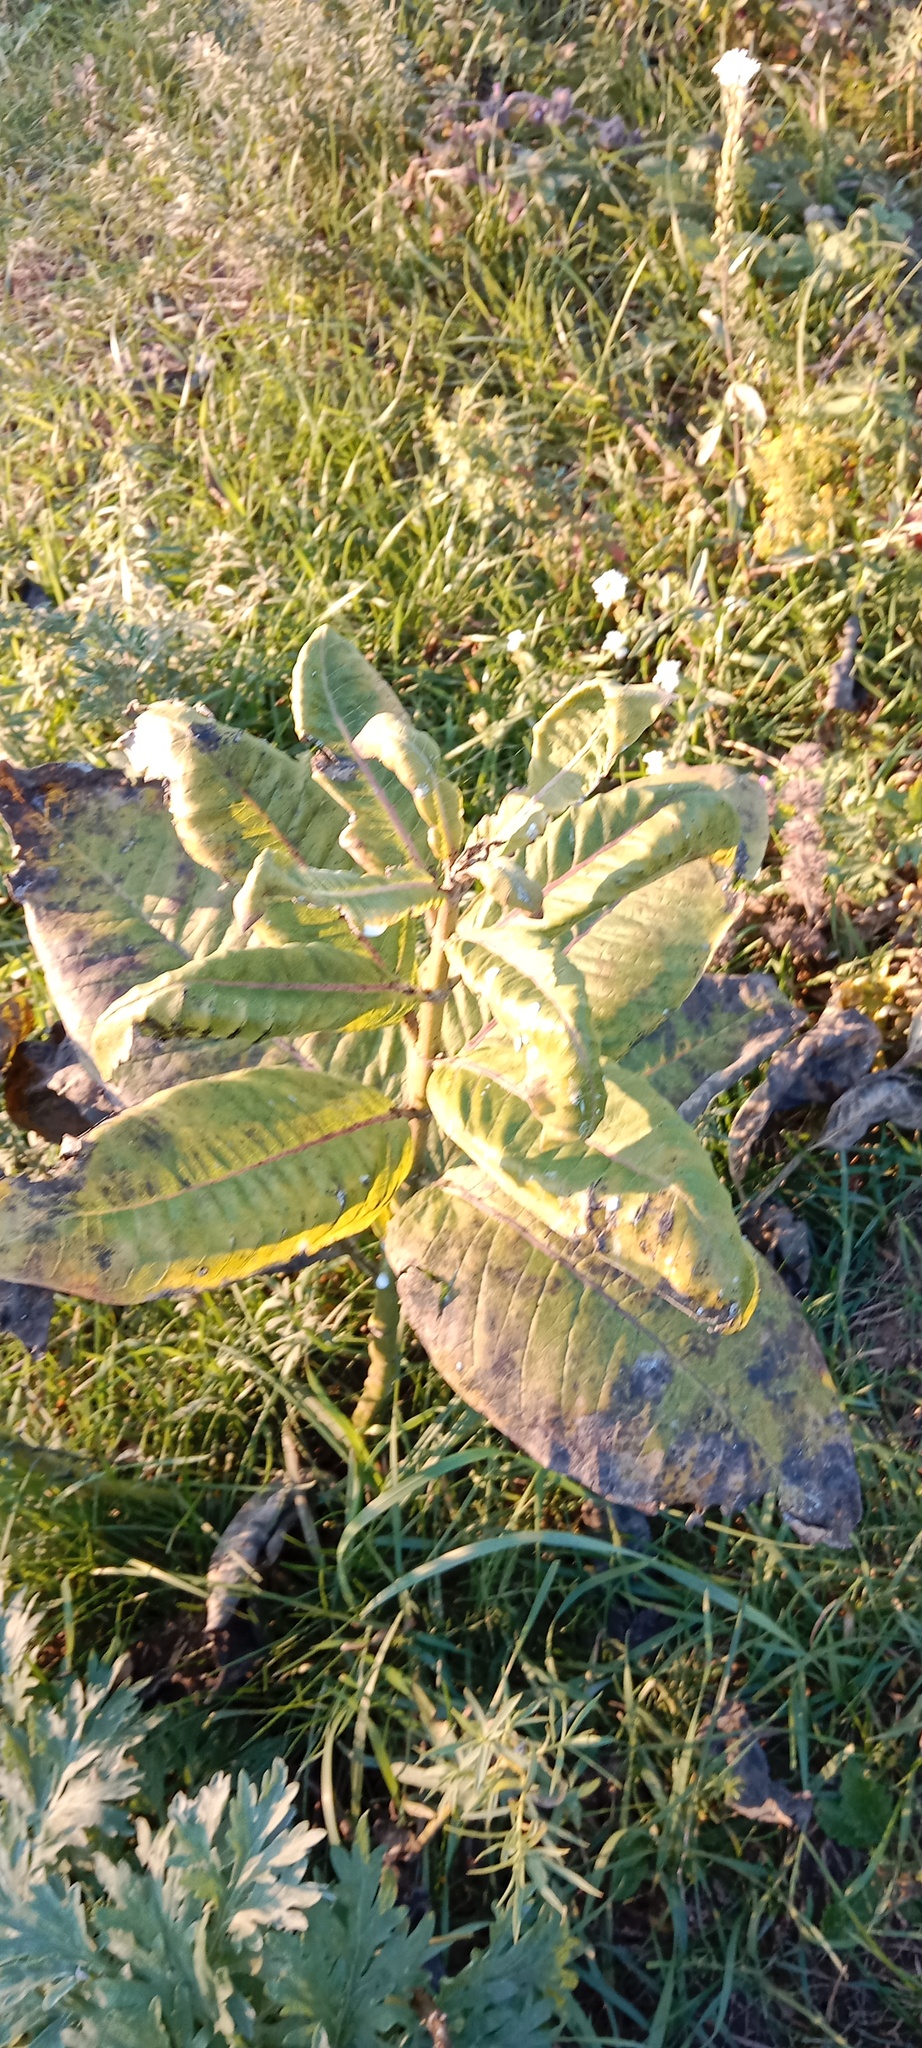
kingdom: Plantae
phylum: Tracheophyta
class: Magnoliopsida
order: Gentianales
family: Apocynaceae
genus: Asclepias
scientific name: Asclepias syriaca
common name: Common milkweed
